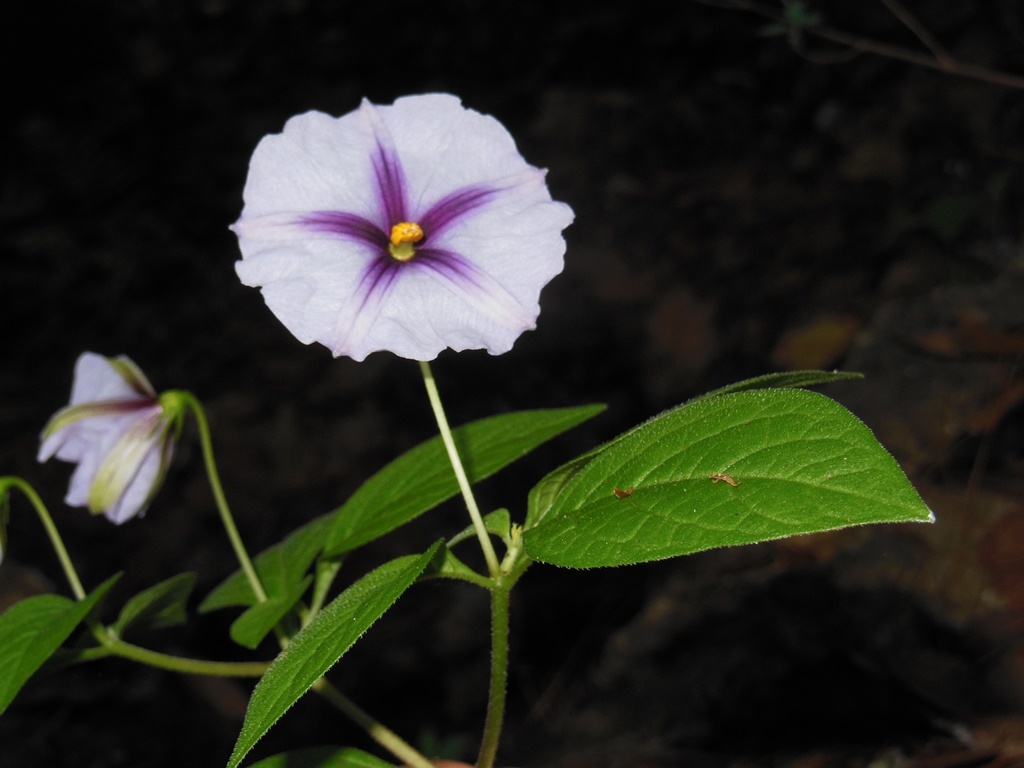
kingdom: Plantae
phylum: Tracheophyta
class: Magnoliopsida
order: Solanales
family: Solanaceae
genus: Lycianthes
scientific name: Lycianthes ciliolata
